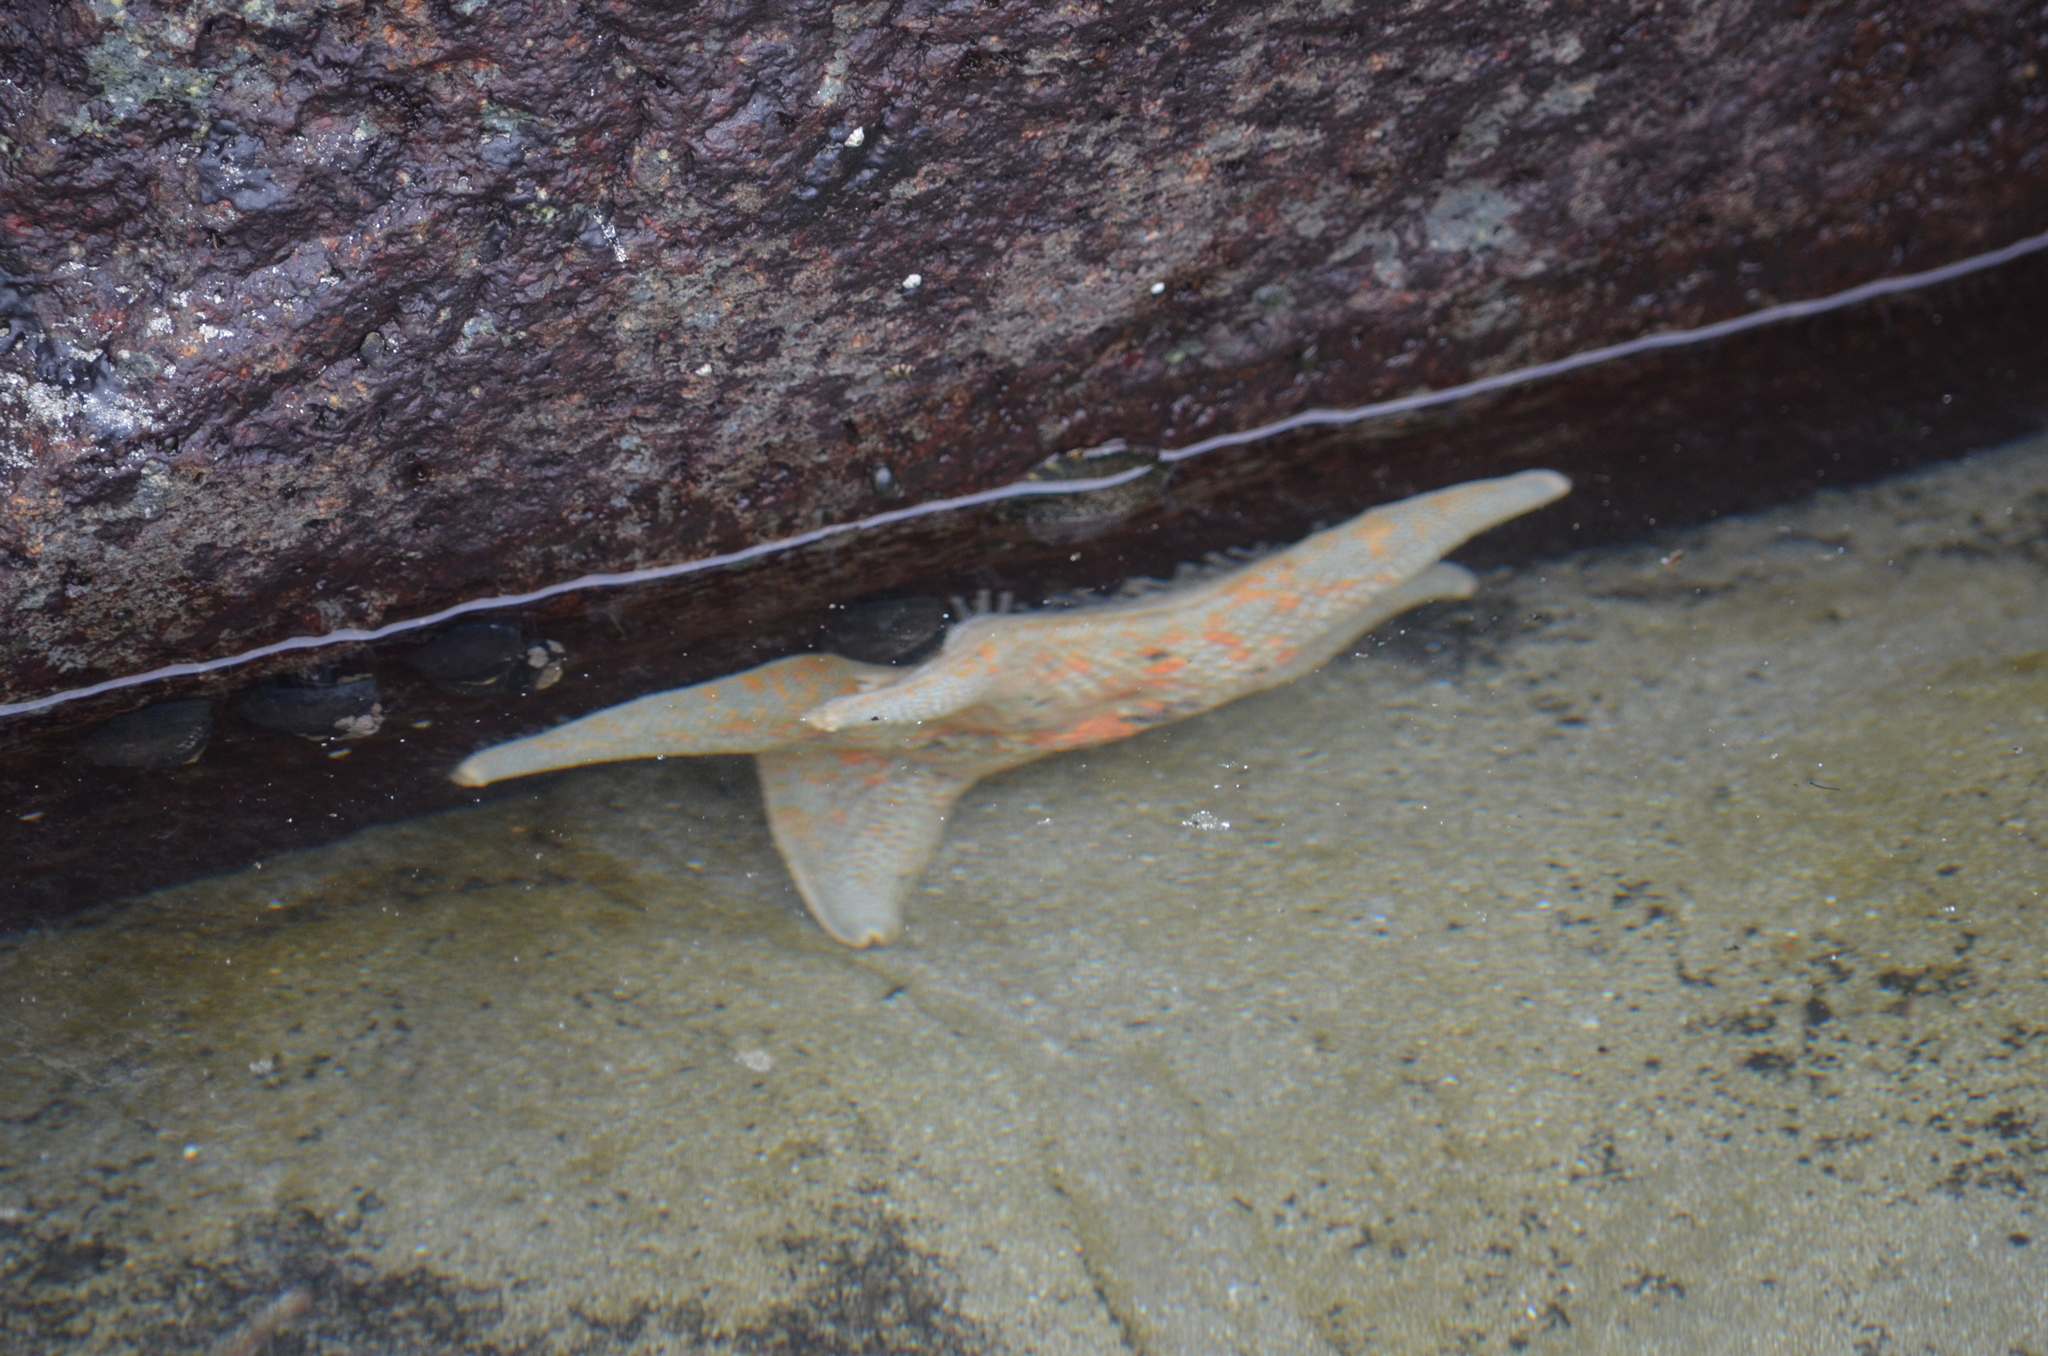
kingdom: Animalia
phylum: Echinodermata
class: Asteroidea
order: Valvatida
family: Asterinidae
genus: Patiria
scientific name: Patiria miniata
